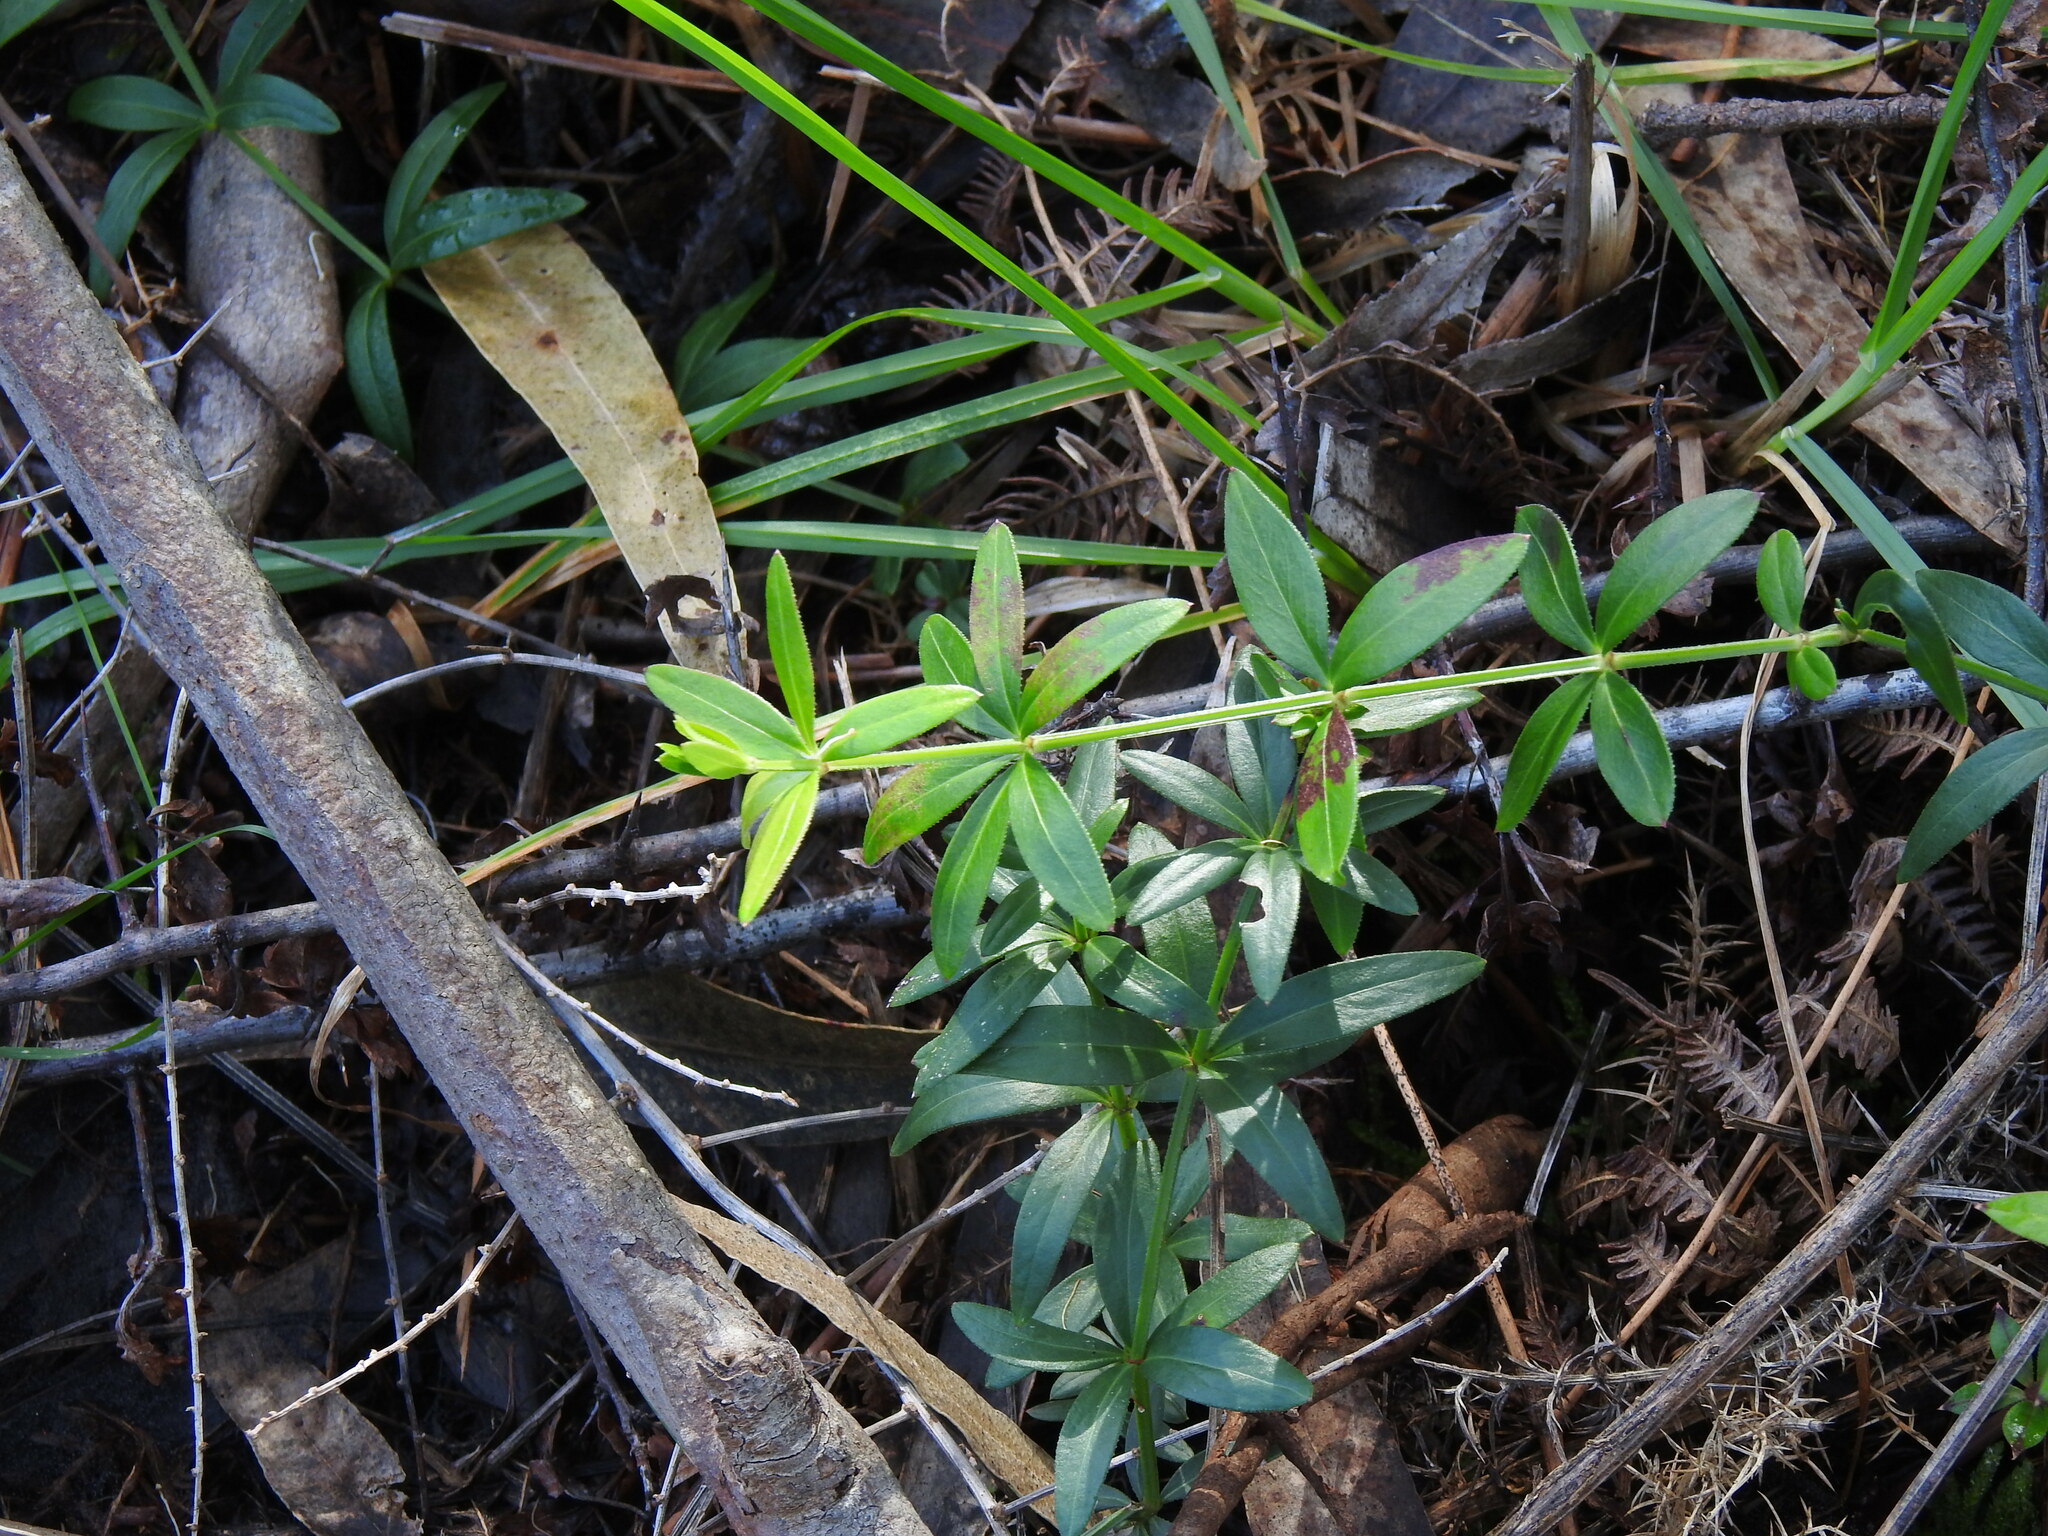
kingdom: Plantae
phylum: Tracheophyta
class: Magnoliopsida
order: Gentianales
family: Rubiaceae
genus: Rubia
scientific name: Rubia peregrina
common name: Wild madder
